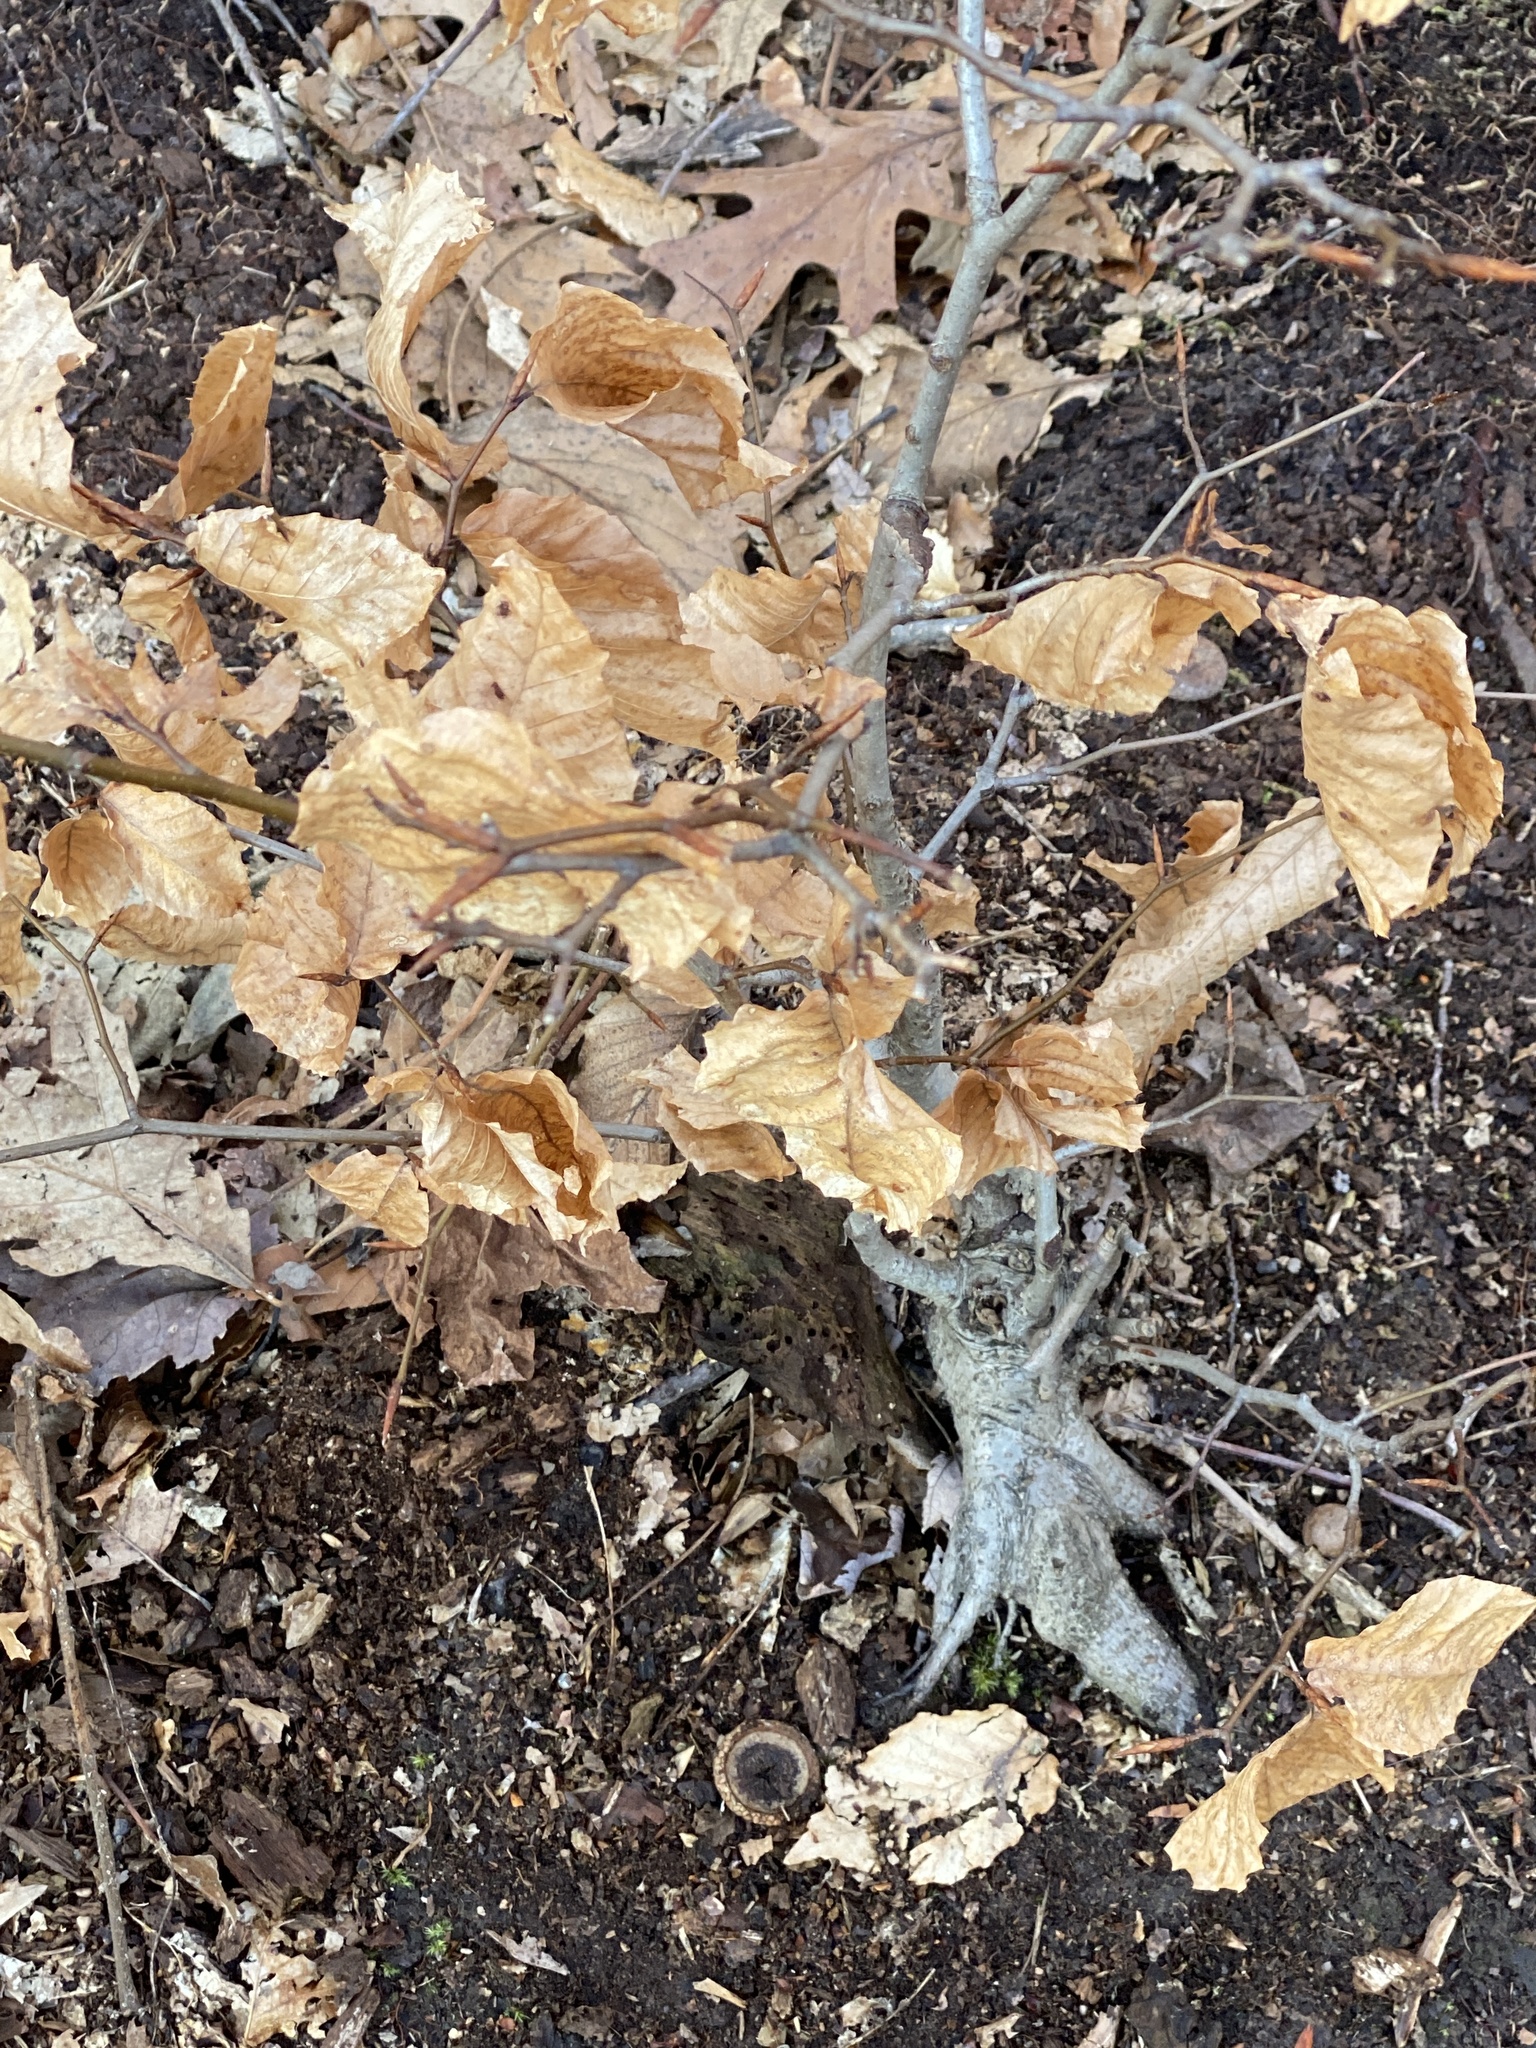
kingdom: Plantae
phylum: Tracheophyta
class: Magnoliopsida
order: Fagales
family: Fagaceae
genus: Fagus
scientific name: Fagus grandifolia
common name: American beech
